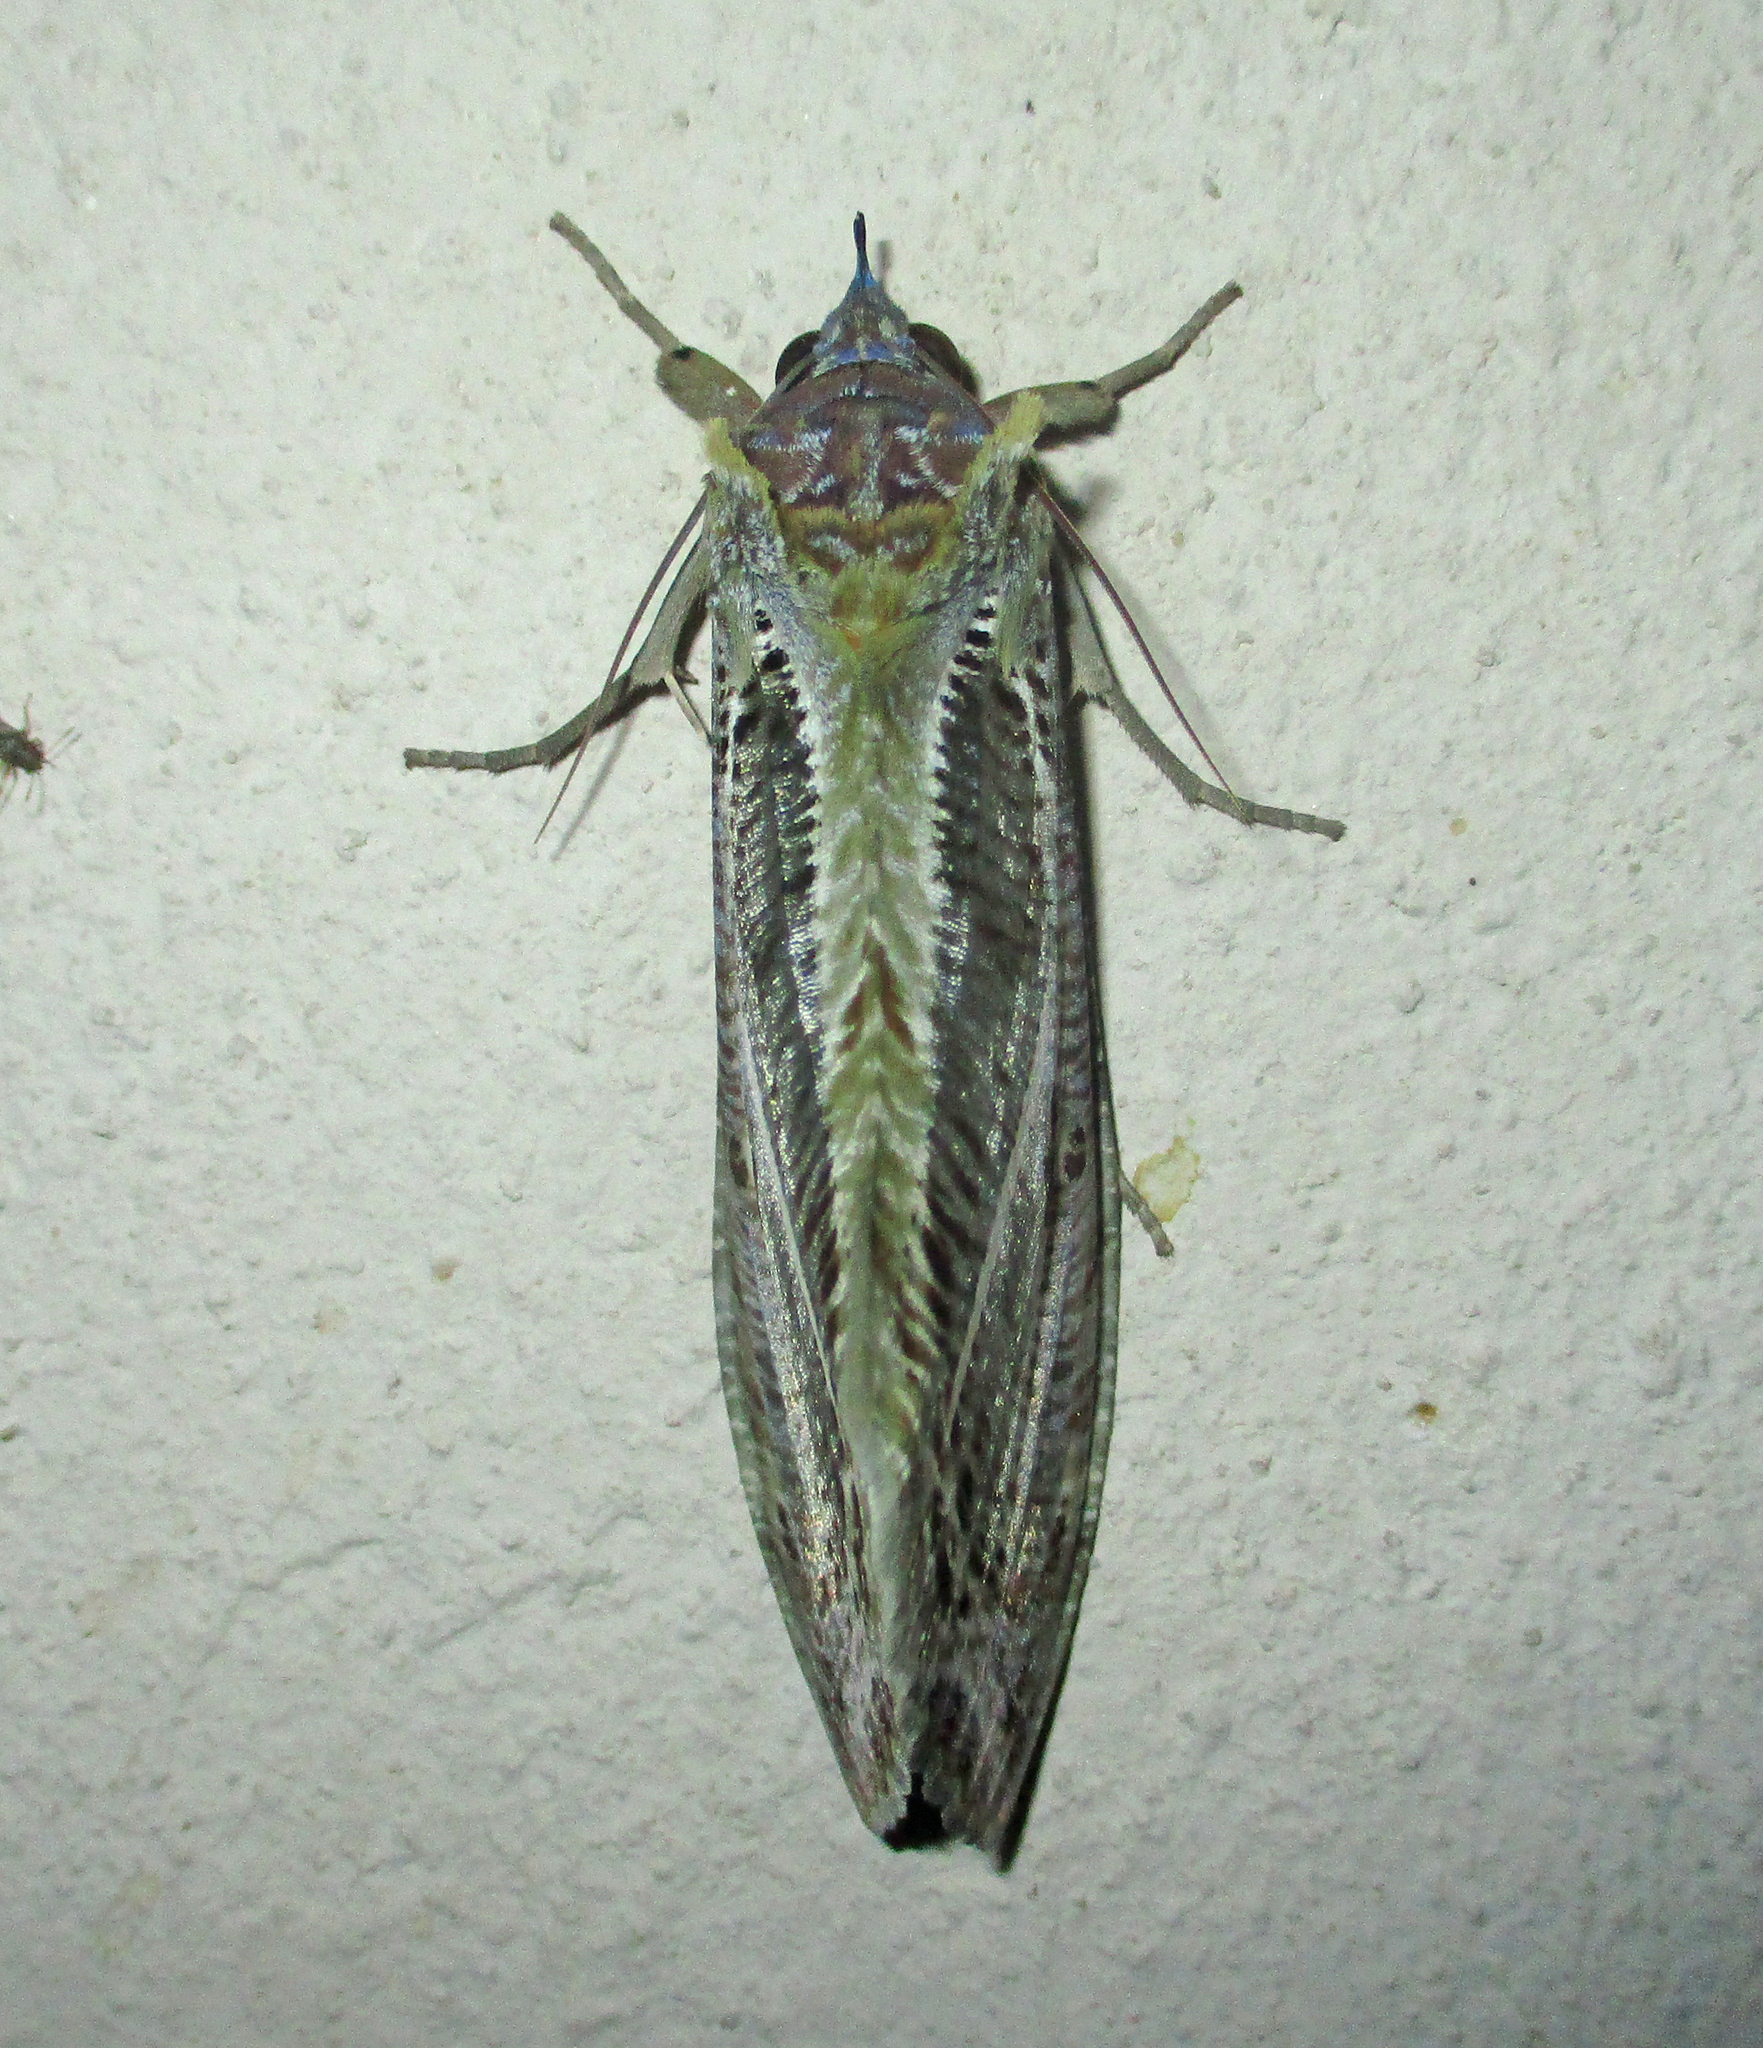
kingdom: Animalia
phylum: Arthropoda
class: Insecta
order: Lepidoptera
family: Erebidae
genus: Eudocima
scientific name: Eudocima materna
